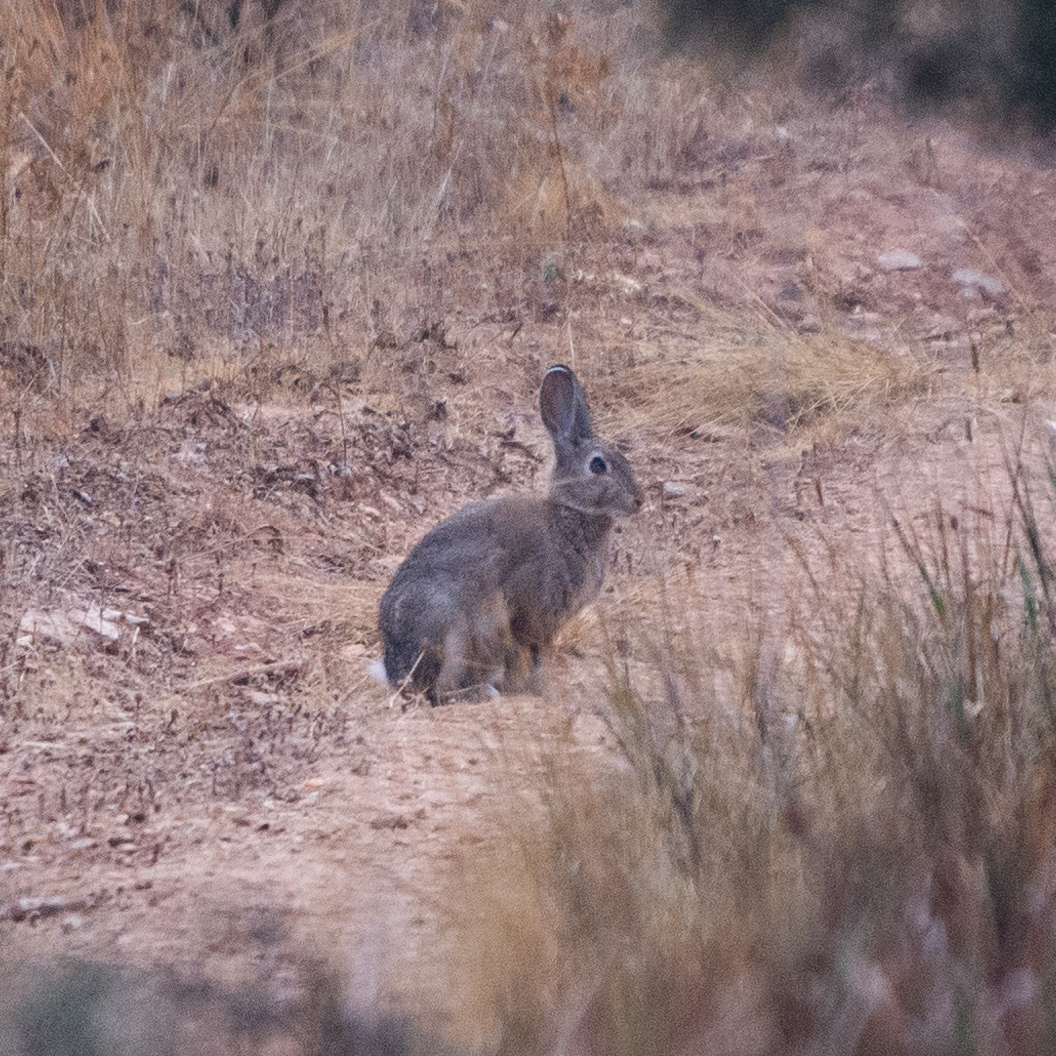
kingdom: Animalia
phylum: Chordata
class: Mammalia
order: Lagomorpha
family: Leporidae
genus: Oryctolagus
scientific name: Oryctolagus cuniculus
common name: European rabbit
